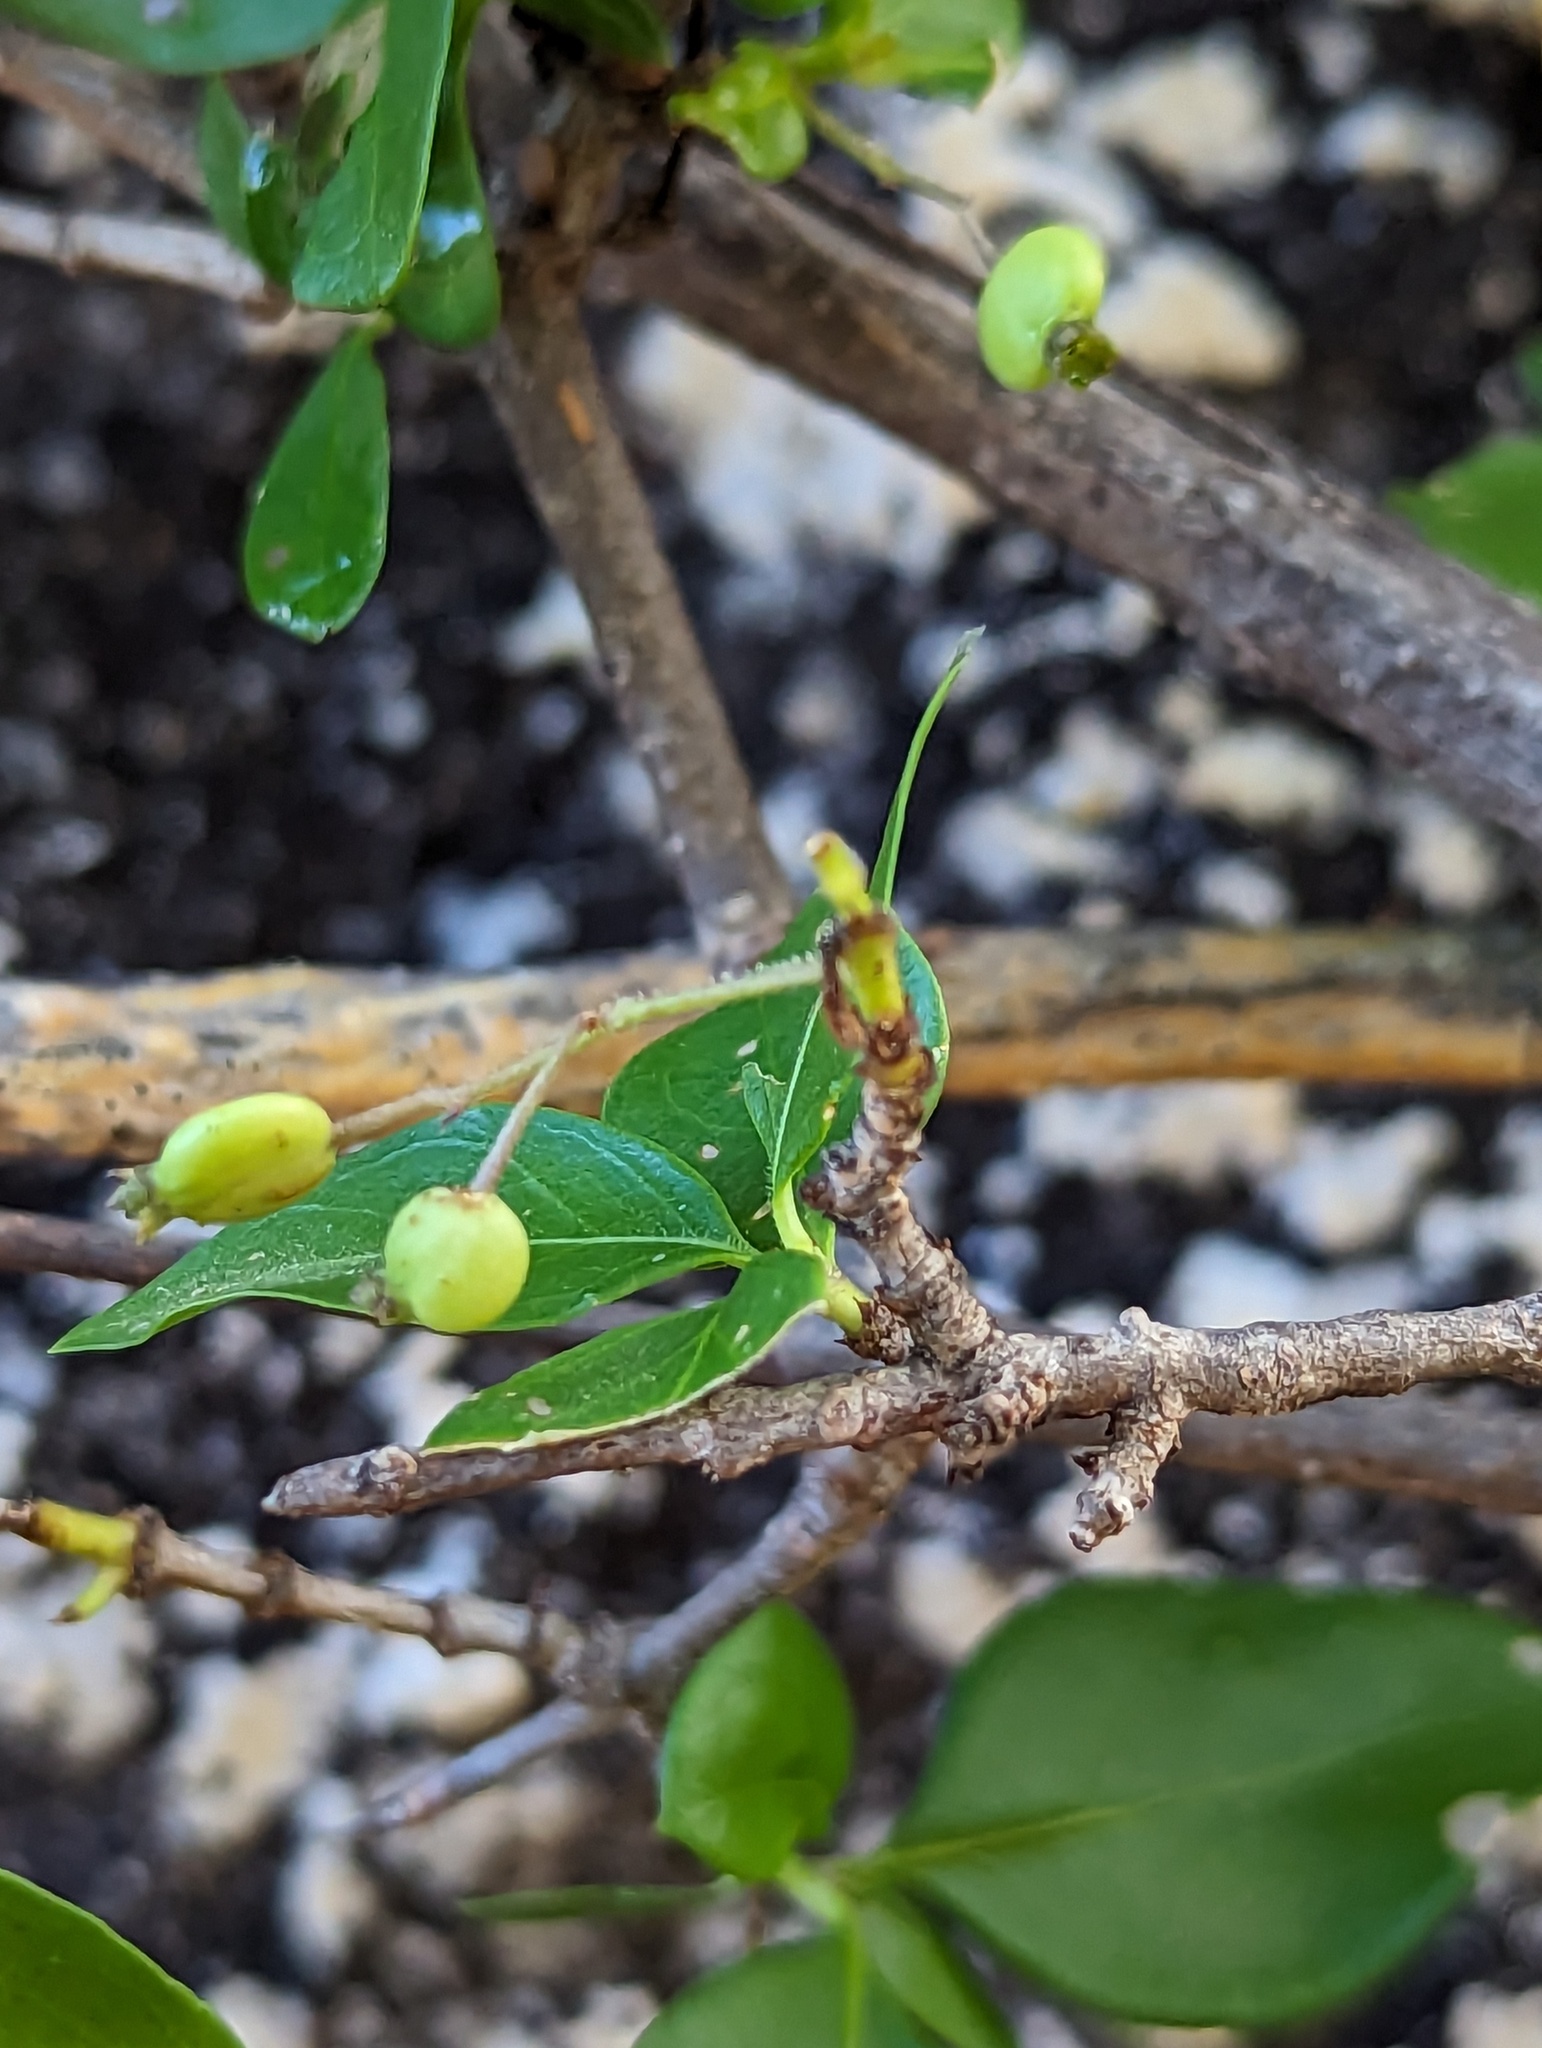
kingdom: Plantae
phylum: Tracheophyta
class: Magnoliopsida
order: Gentianales
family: Rubiaceae
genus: Chiococca
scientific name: Chiococca alba
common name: Snowberry
